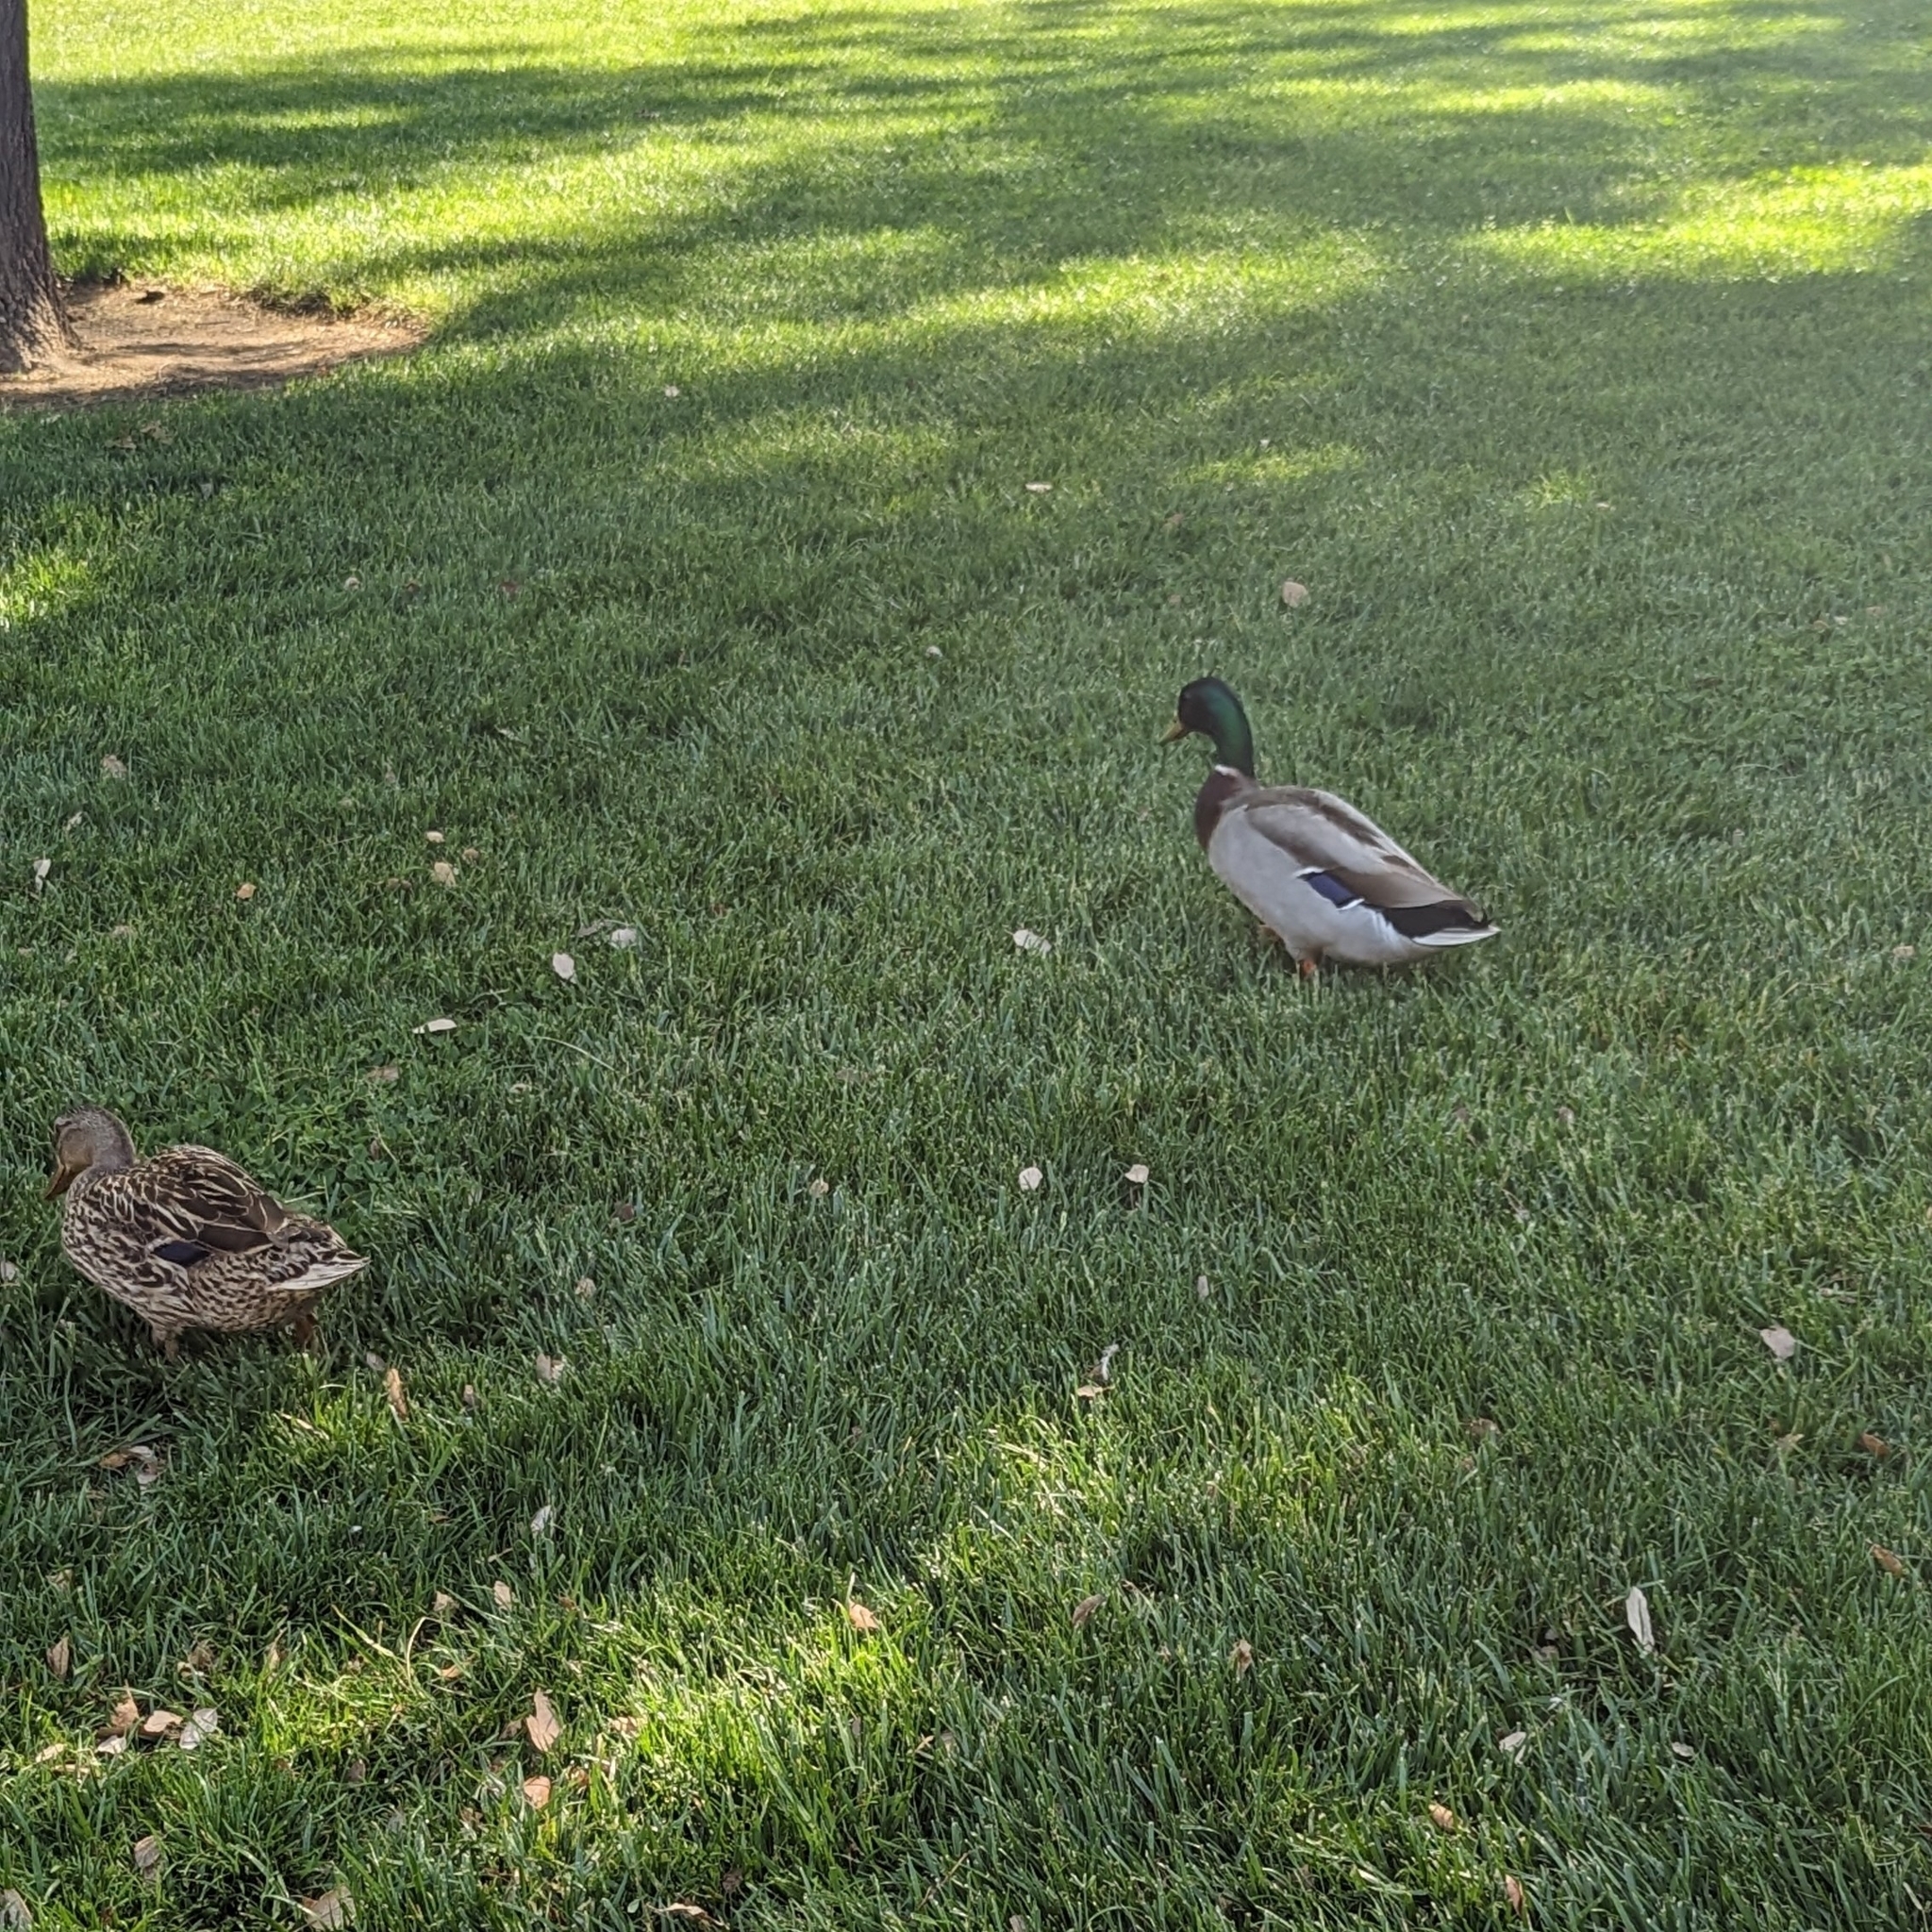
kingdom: Animalia
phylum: Chordata
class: Aves
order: Anseriformes
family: Anatidae
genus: Anas
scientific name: Anas platyrhynchos
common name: Mallard
